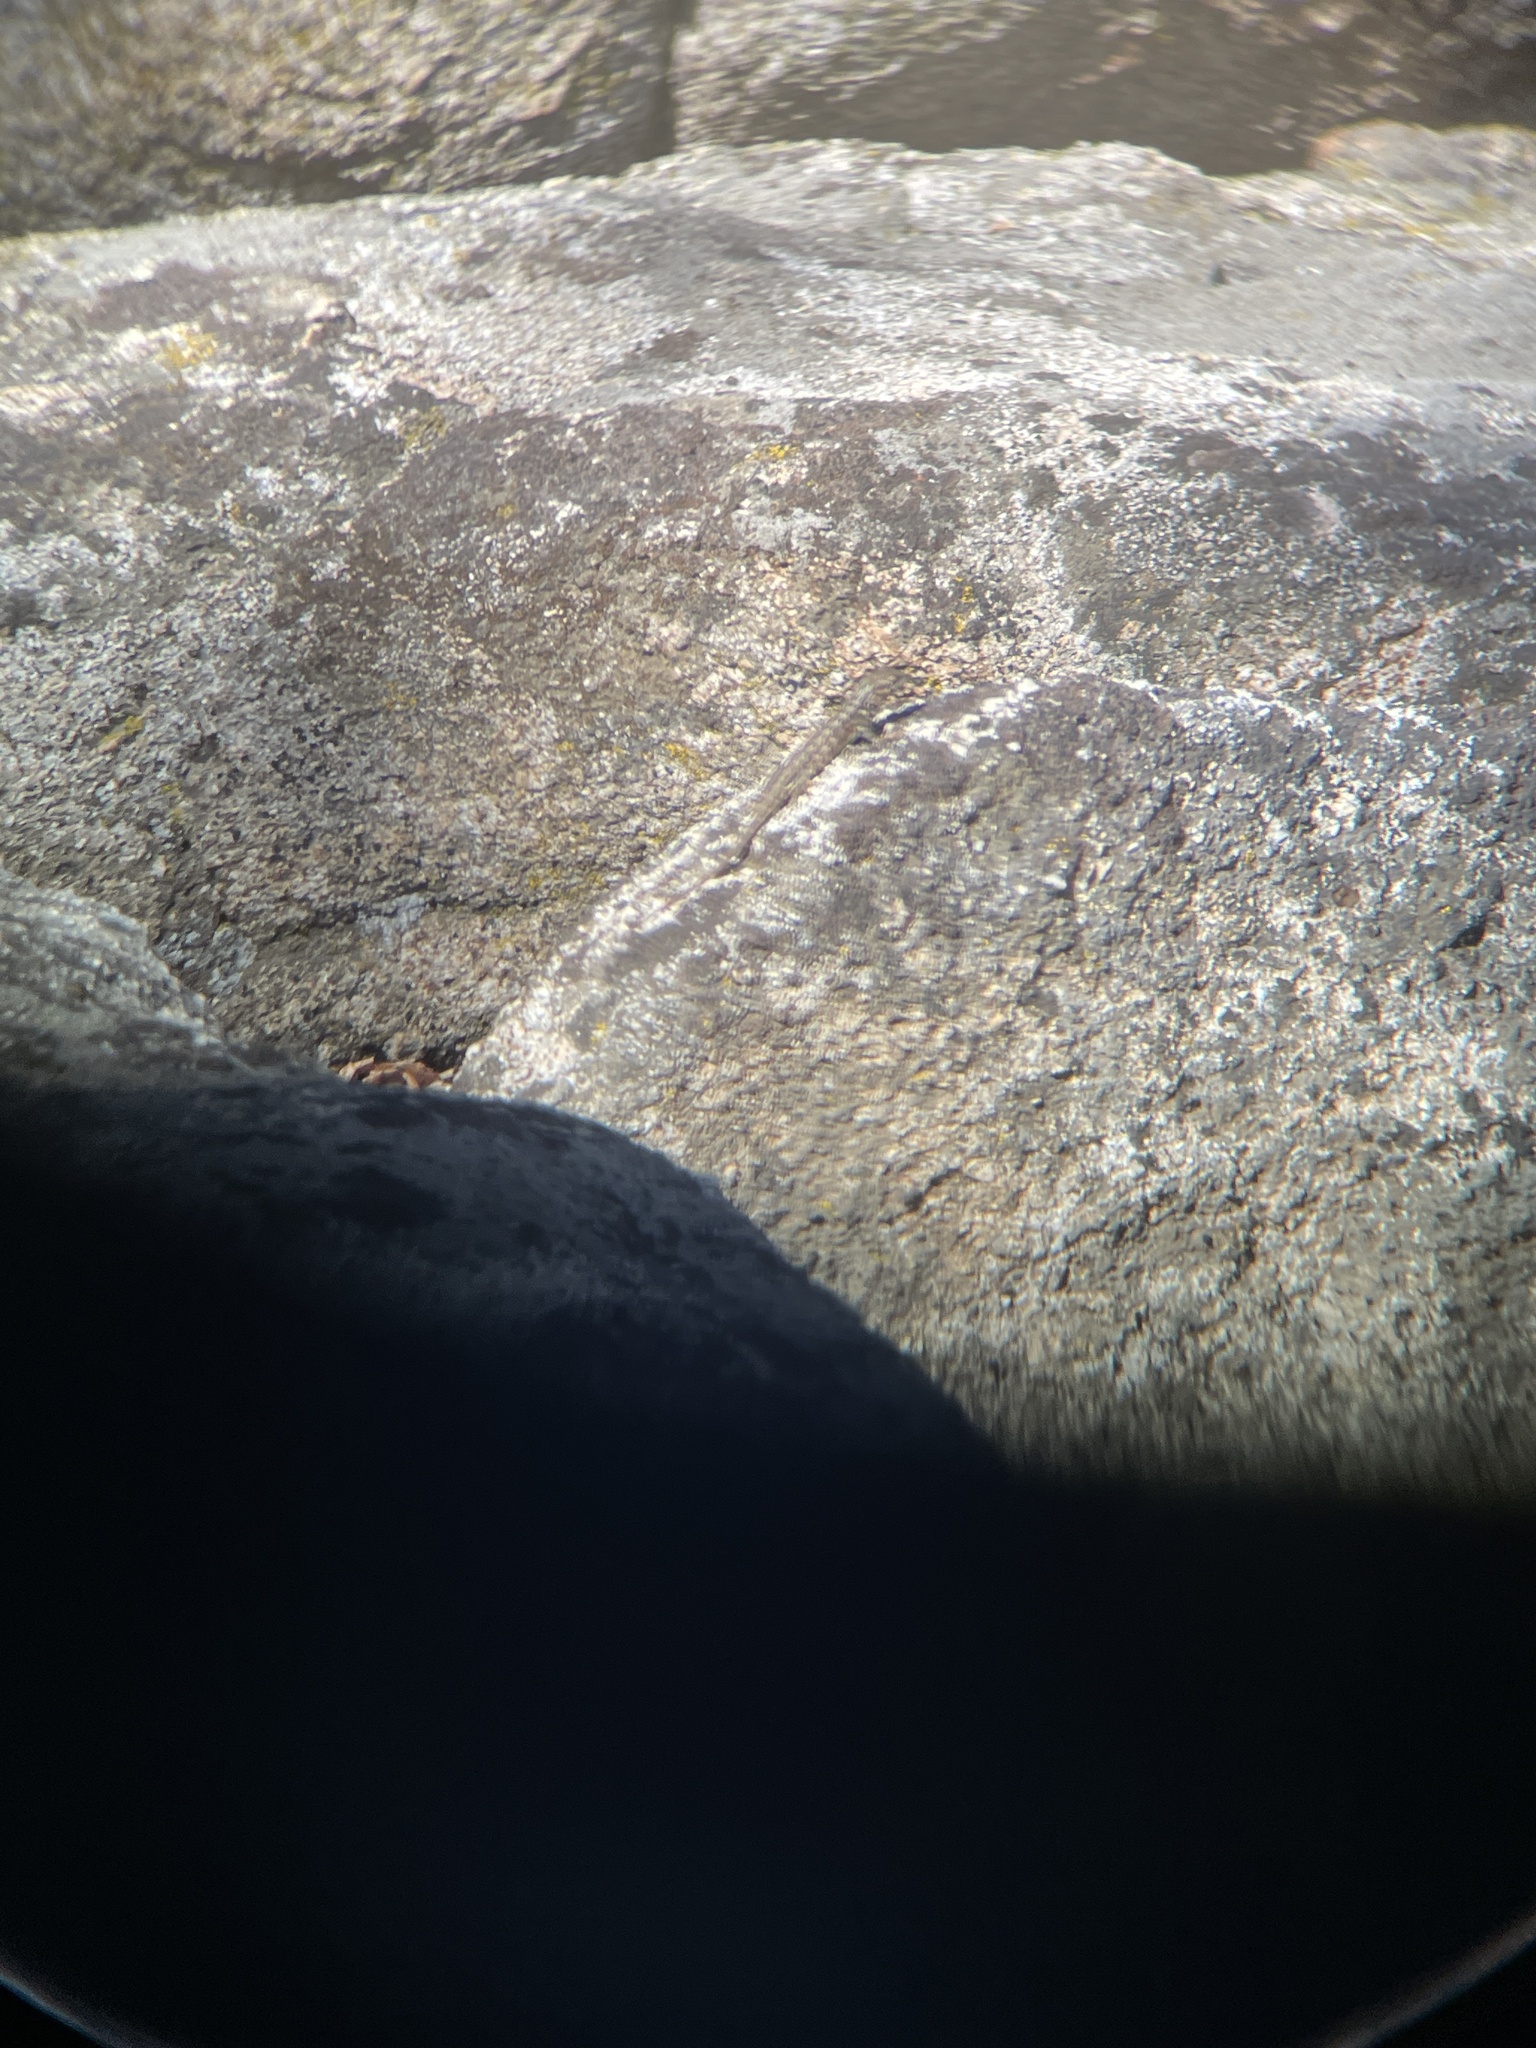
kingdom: Animalia
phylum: Chordata
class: Squamata
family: Phrynosomatidae
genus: Sceloporus
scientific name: Sceloporus graciosus
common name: Sagebrush lizard
